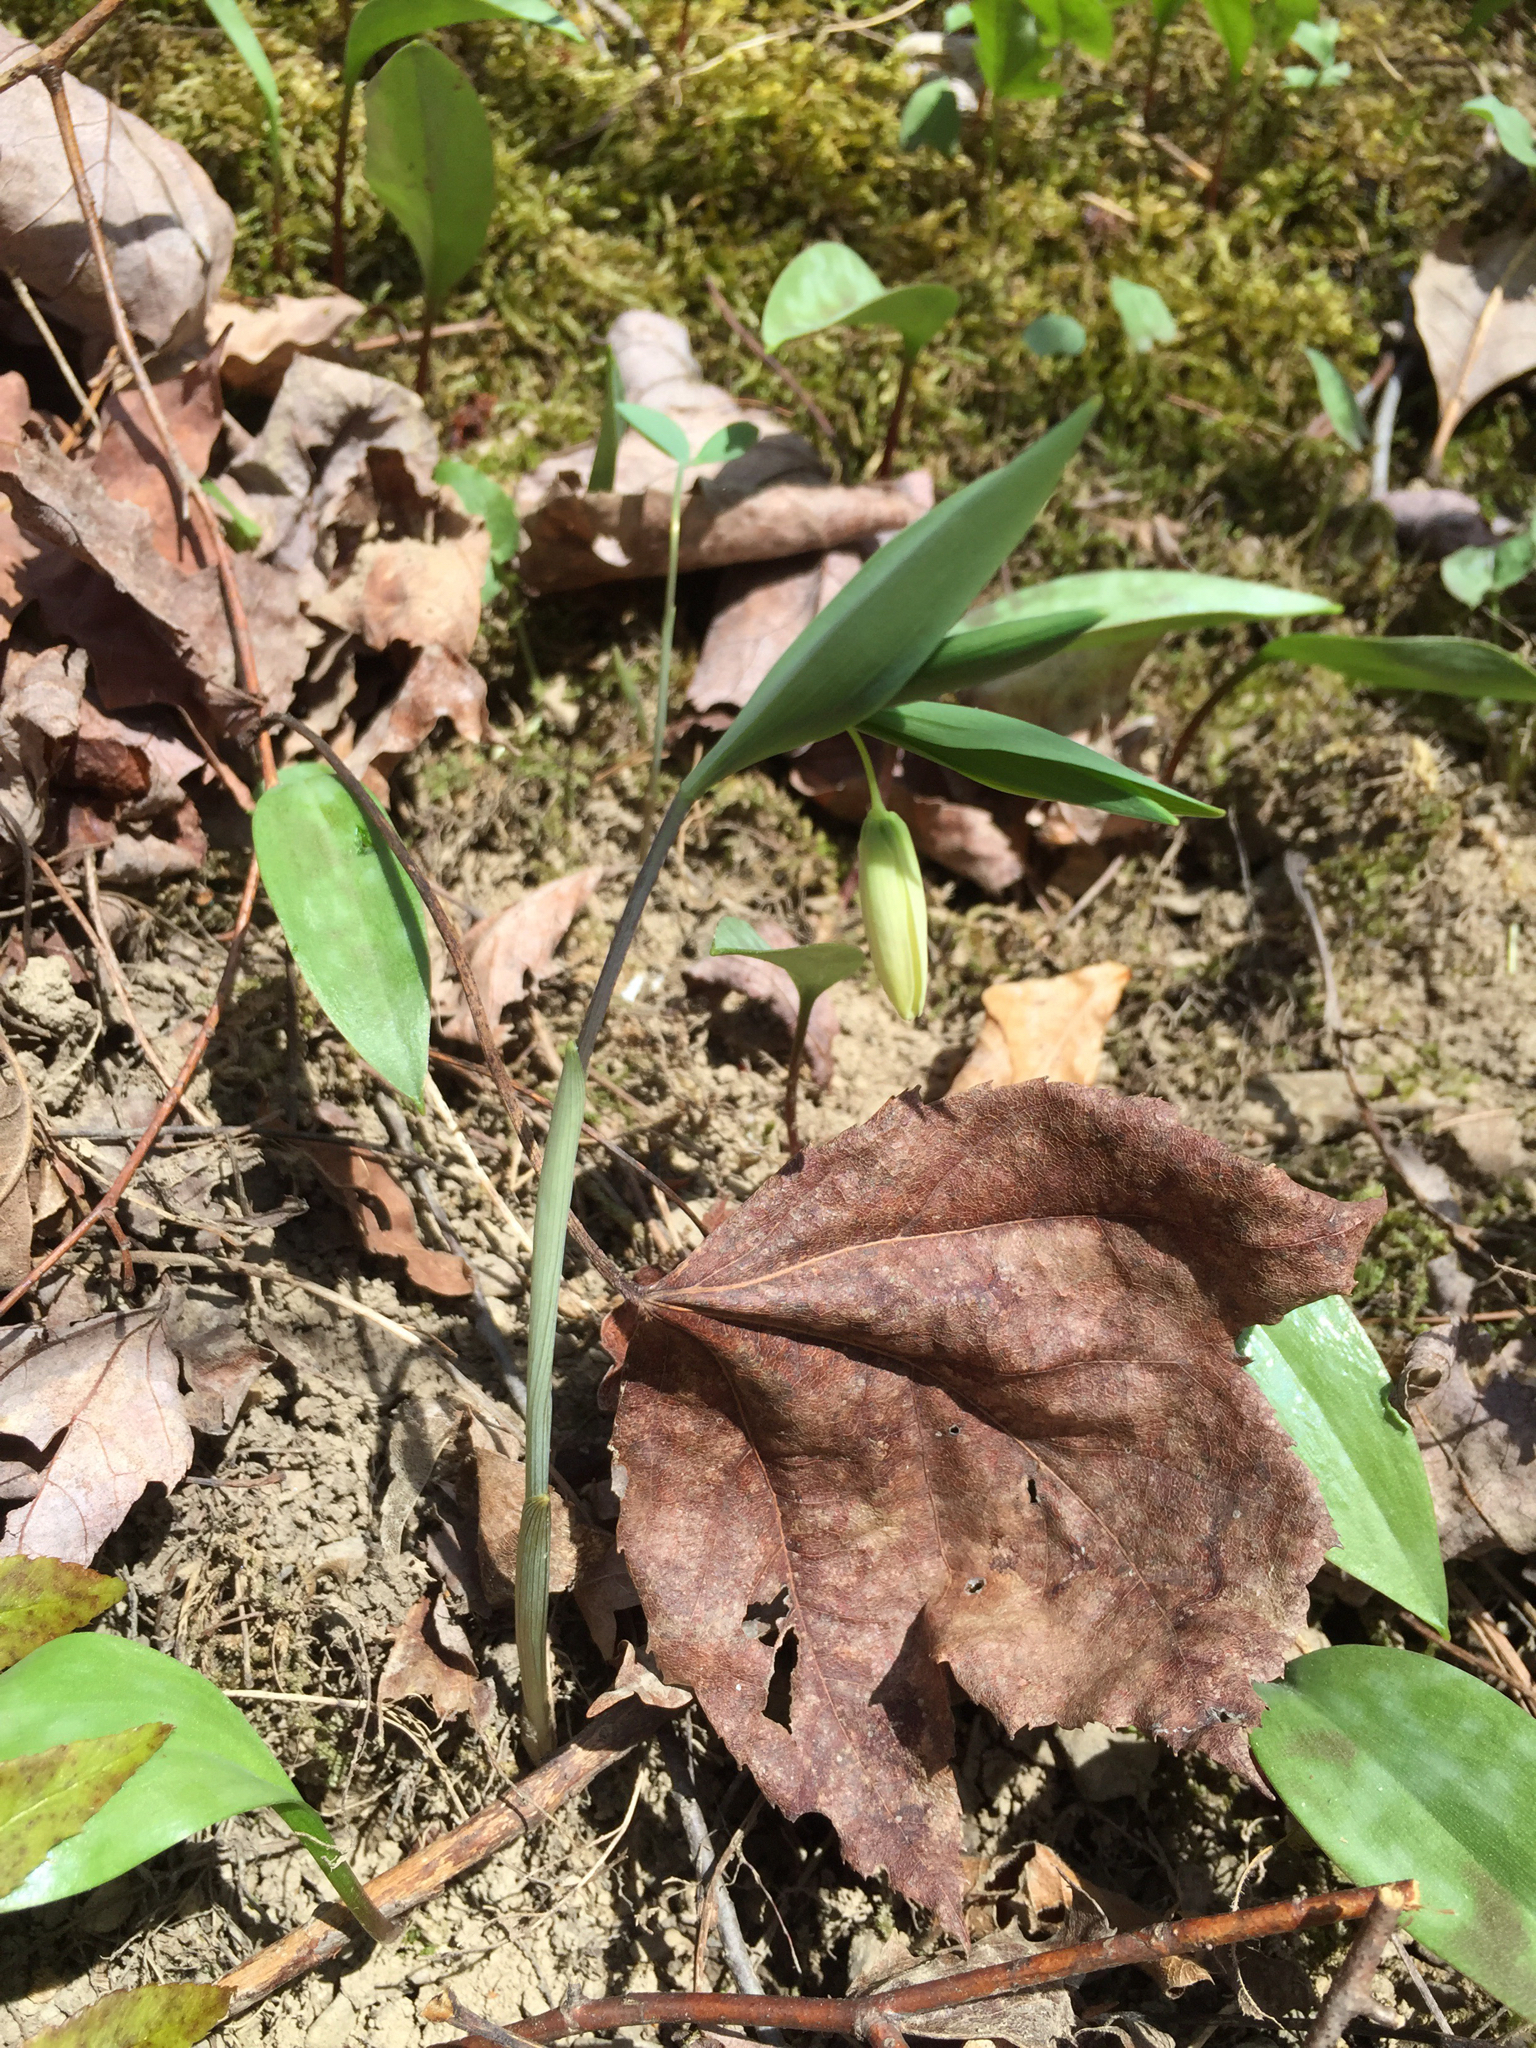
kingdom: Plantae
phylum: Tracheophyta
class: Liliopsida
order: Liliales
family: Colchicaceae
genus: Uvularia
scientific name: Uvularia sessilifolia
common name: Straw-lily
